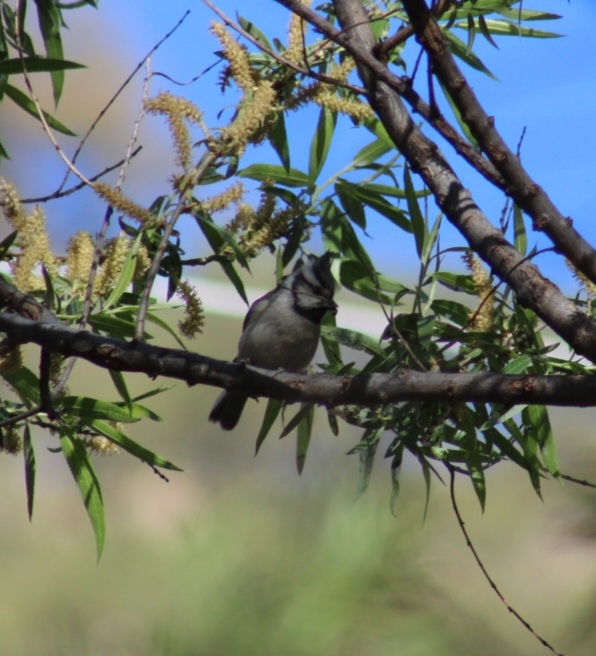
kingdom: Animalia
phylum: Chordata
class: Aves
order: Passeriformes
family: Paridae
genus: Baeolophus
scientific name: Baeolophus wollweberi
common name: Bridled titmouse
